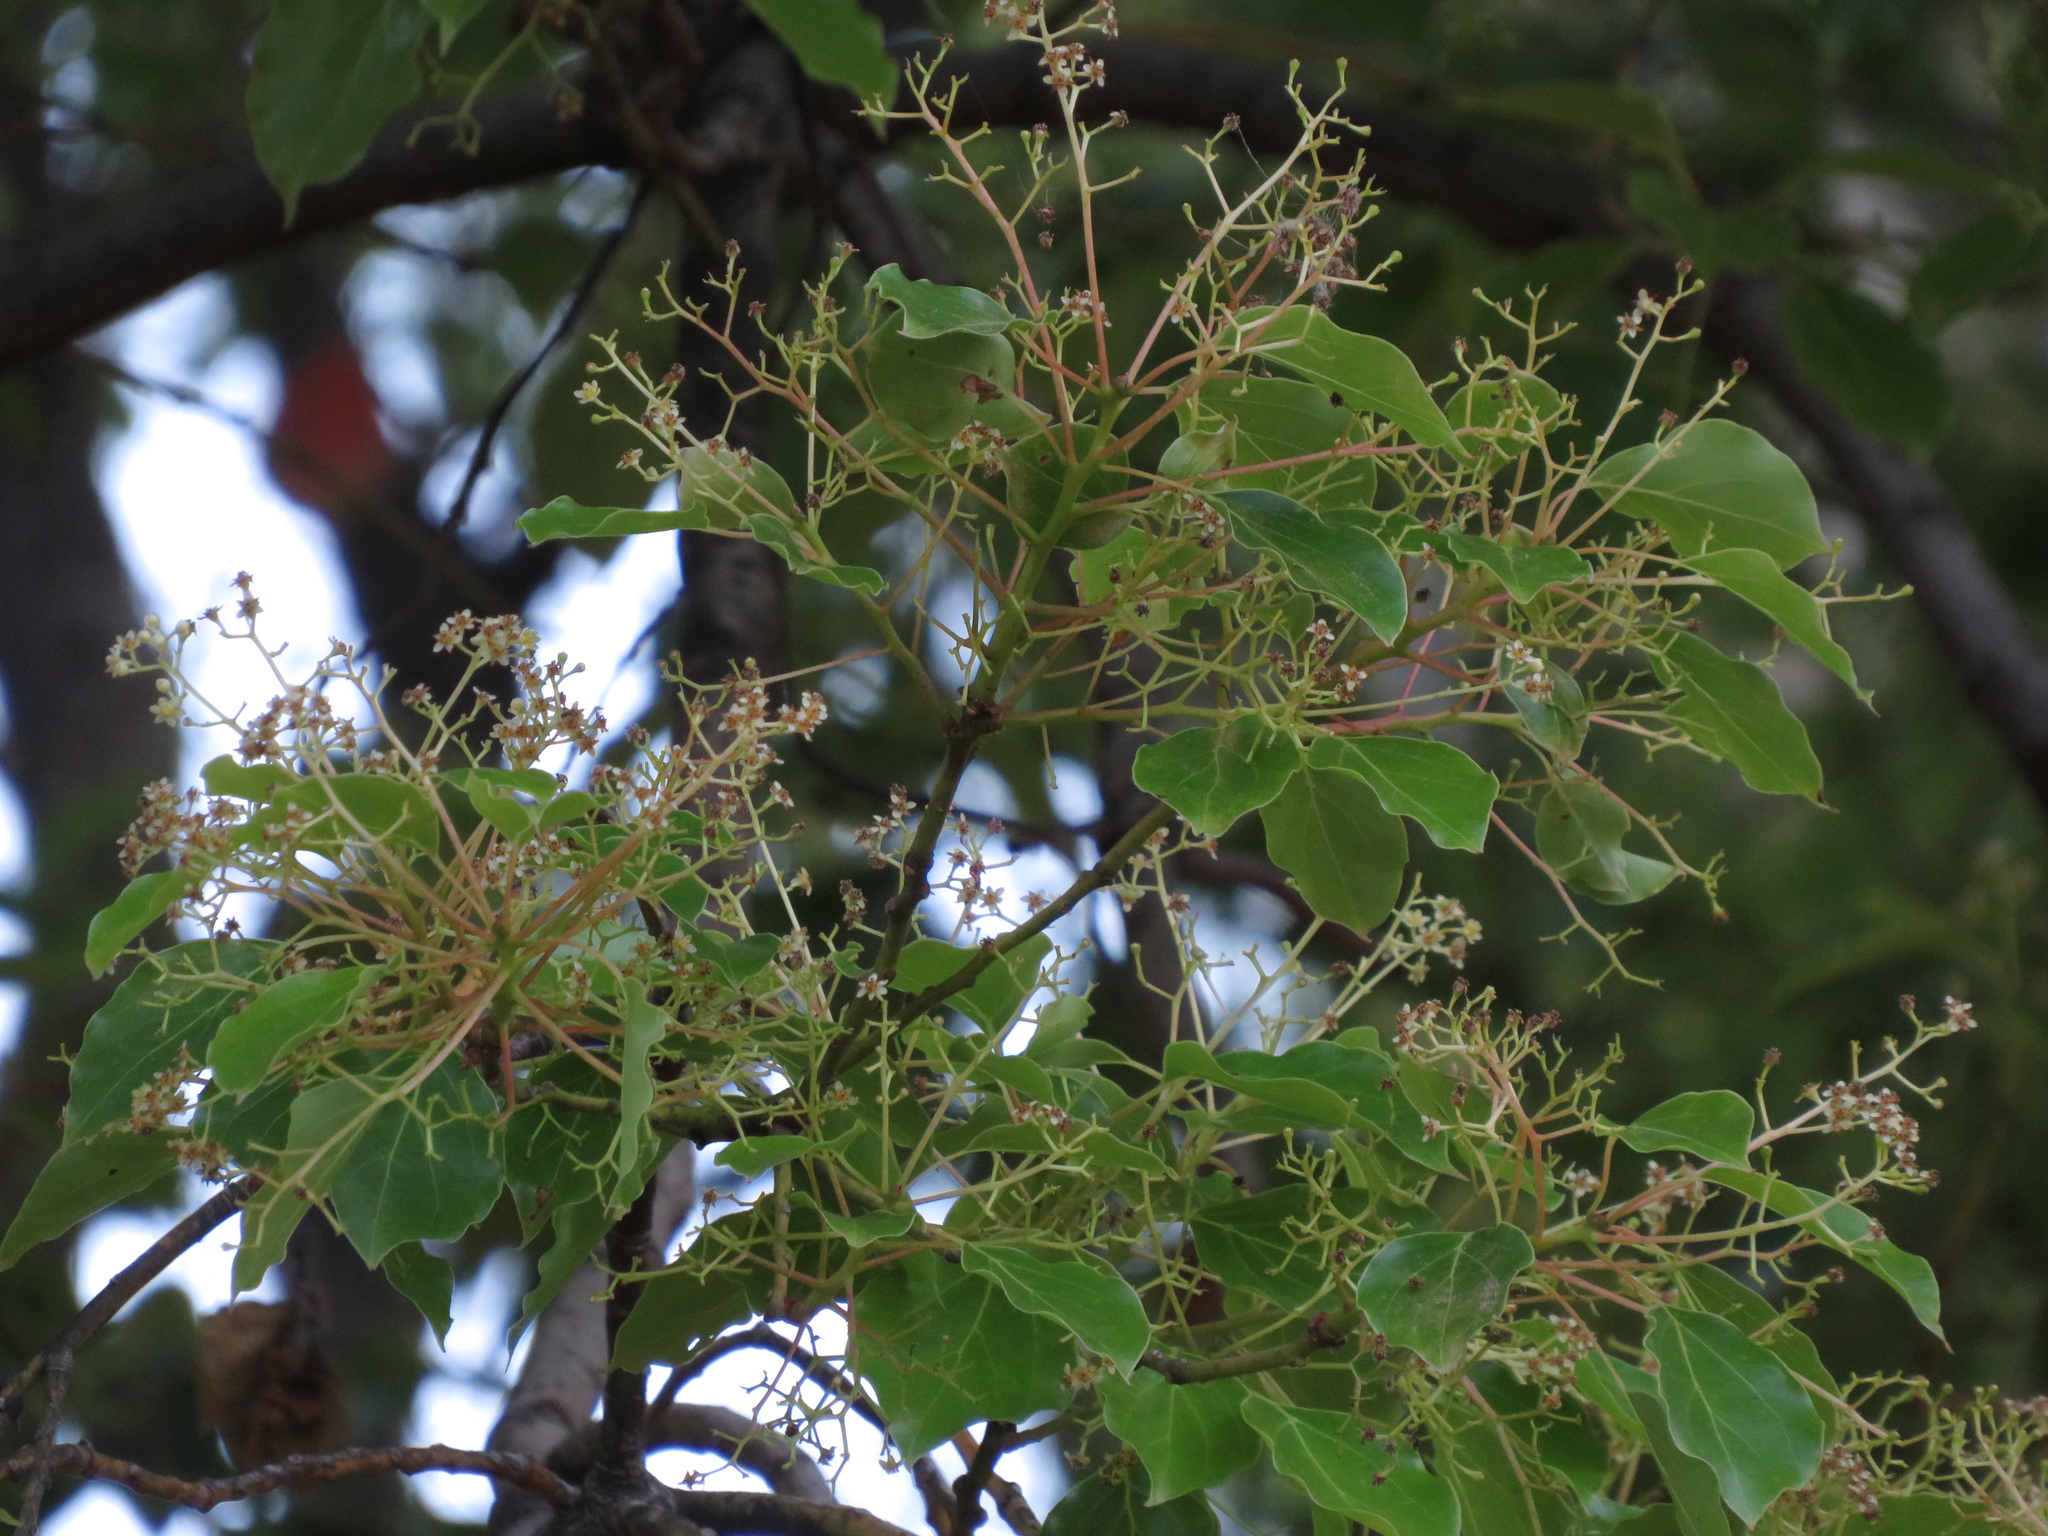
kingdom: Plantae
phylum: Tracheophyta
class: Magnoliopsida
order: Laurales
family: Lauraceae
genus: Cinnamomum
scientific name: Cinnamomum camphora
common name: Camphortree
